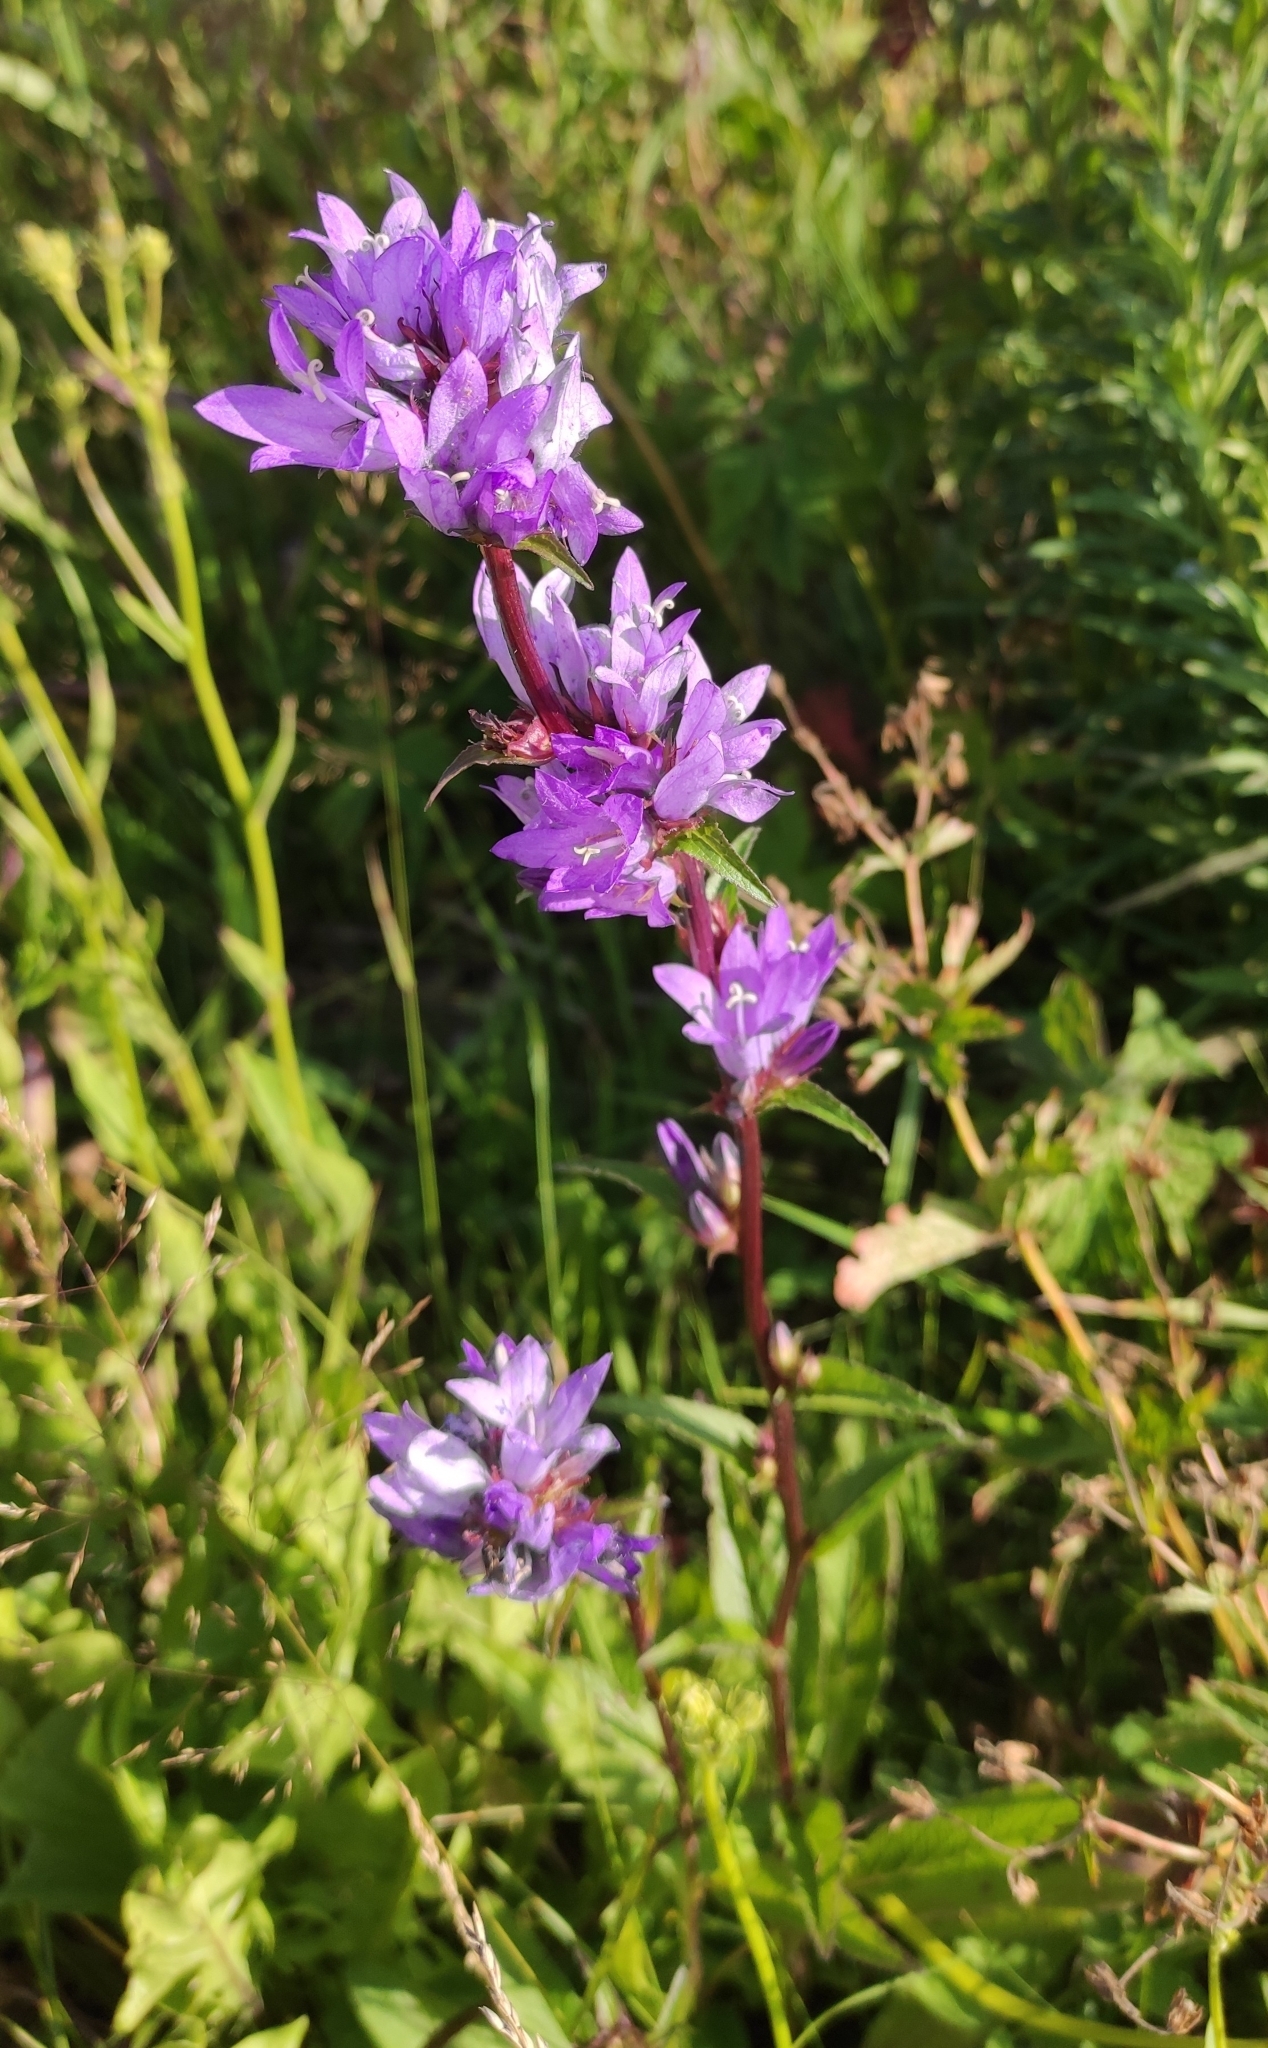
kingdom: Plantae
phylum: Tracheophyta
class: Magnoliopsida
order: Asterales
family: Campanulaceae
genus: Campanula
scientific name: Campanula glomerata
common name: Clustered bellflower
